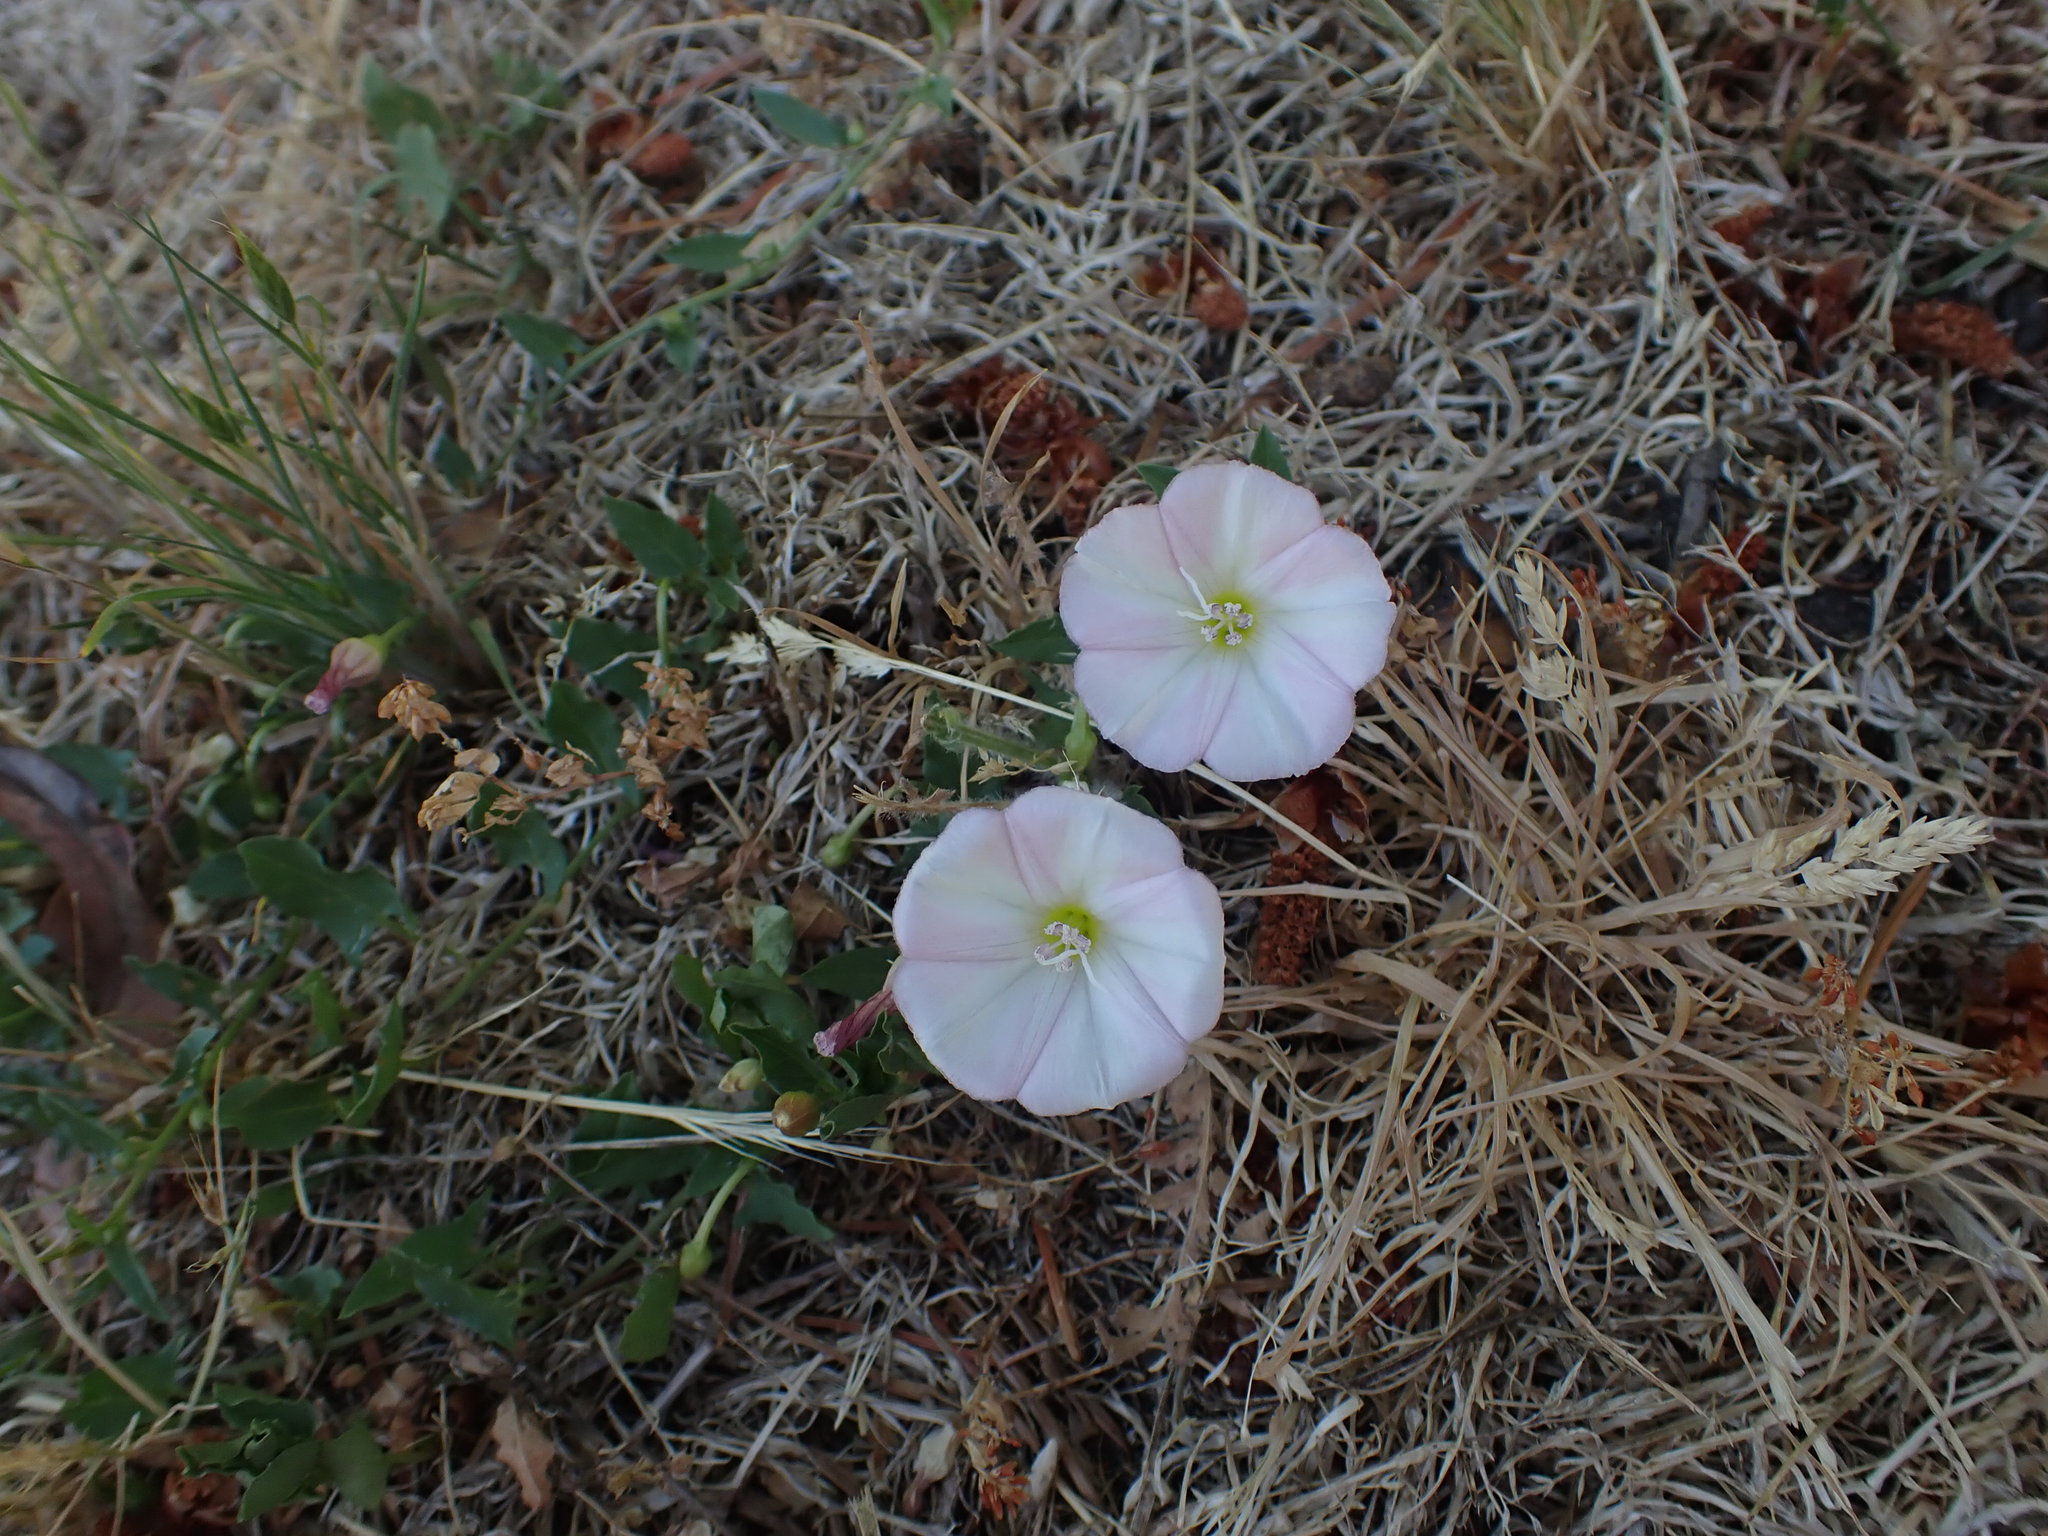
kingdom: Plantae
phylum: Tracheophyta
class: Magnoliopsida
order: Solanales
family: Convolvulaceae
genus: Convolvulus
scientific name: Convolvulus arvensis
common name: Field bindweed
